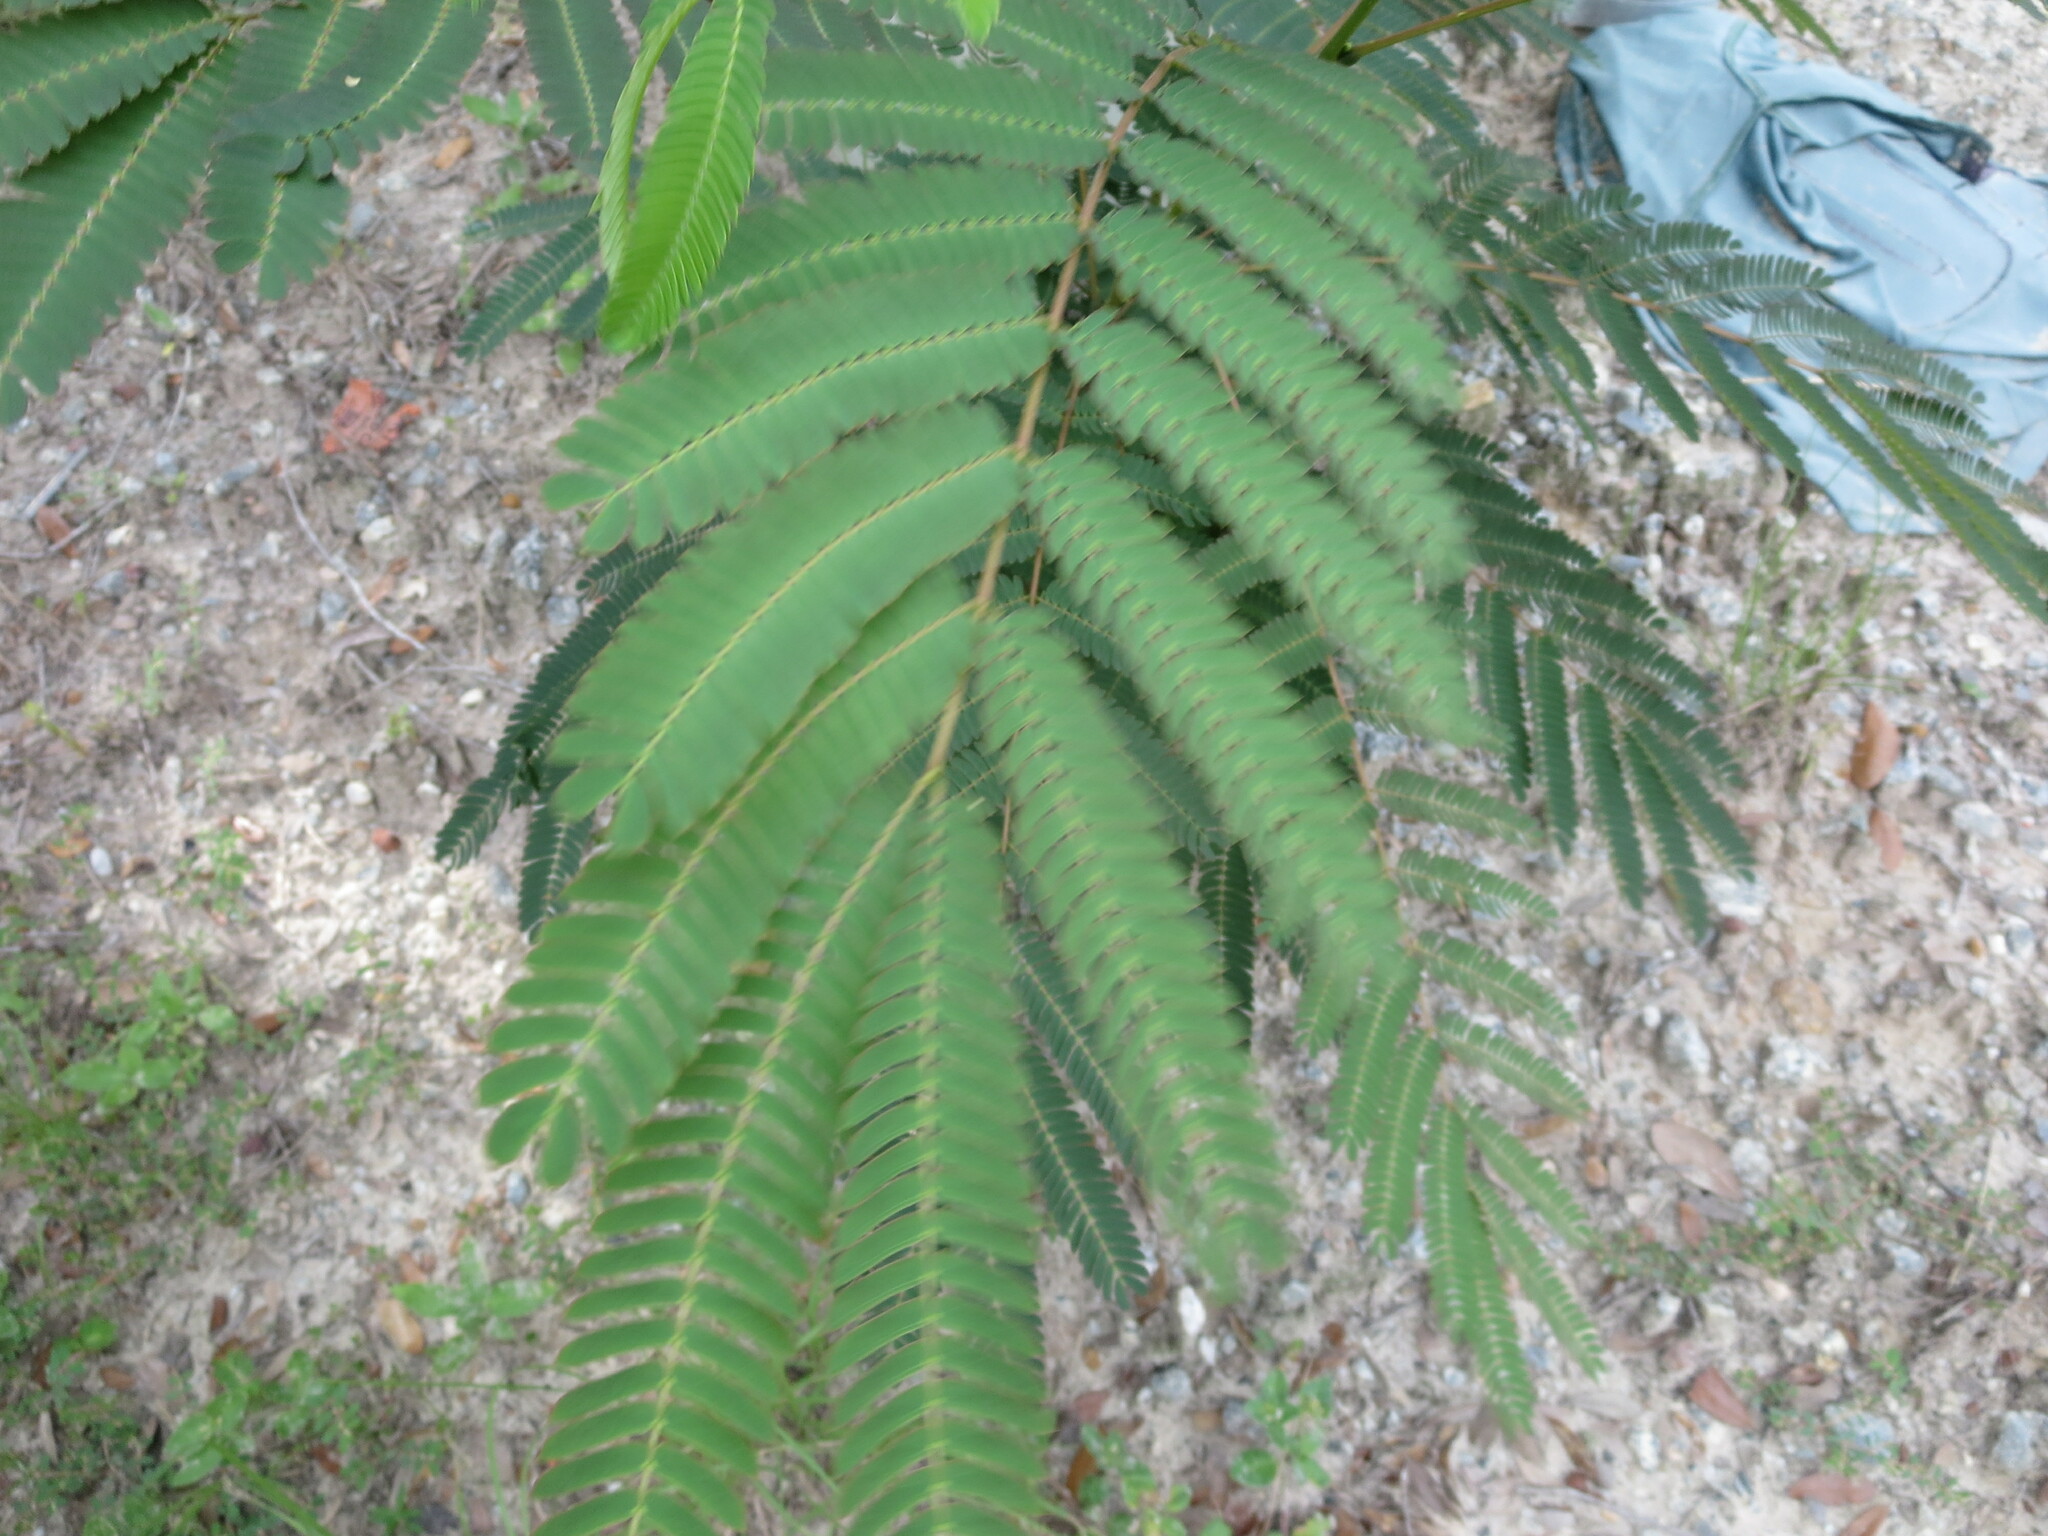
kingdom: Plantae
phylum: Tracheophyta
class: Magnoliopsida
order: Fabales
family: Fabaceae
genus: Albizia
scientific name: Albizia julibrissin
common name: Silktree
